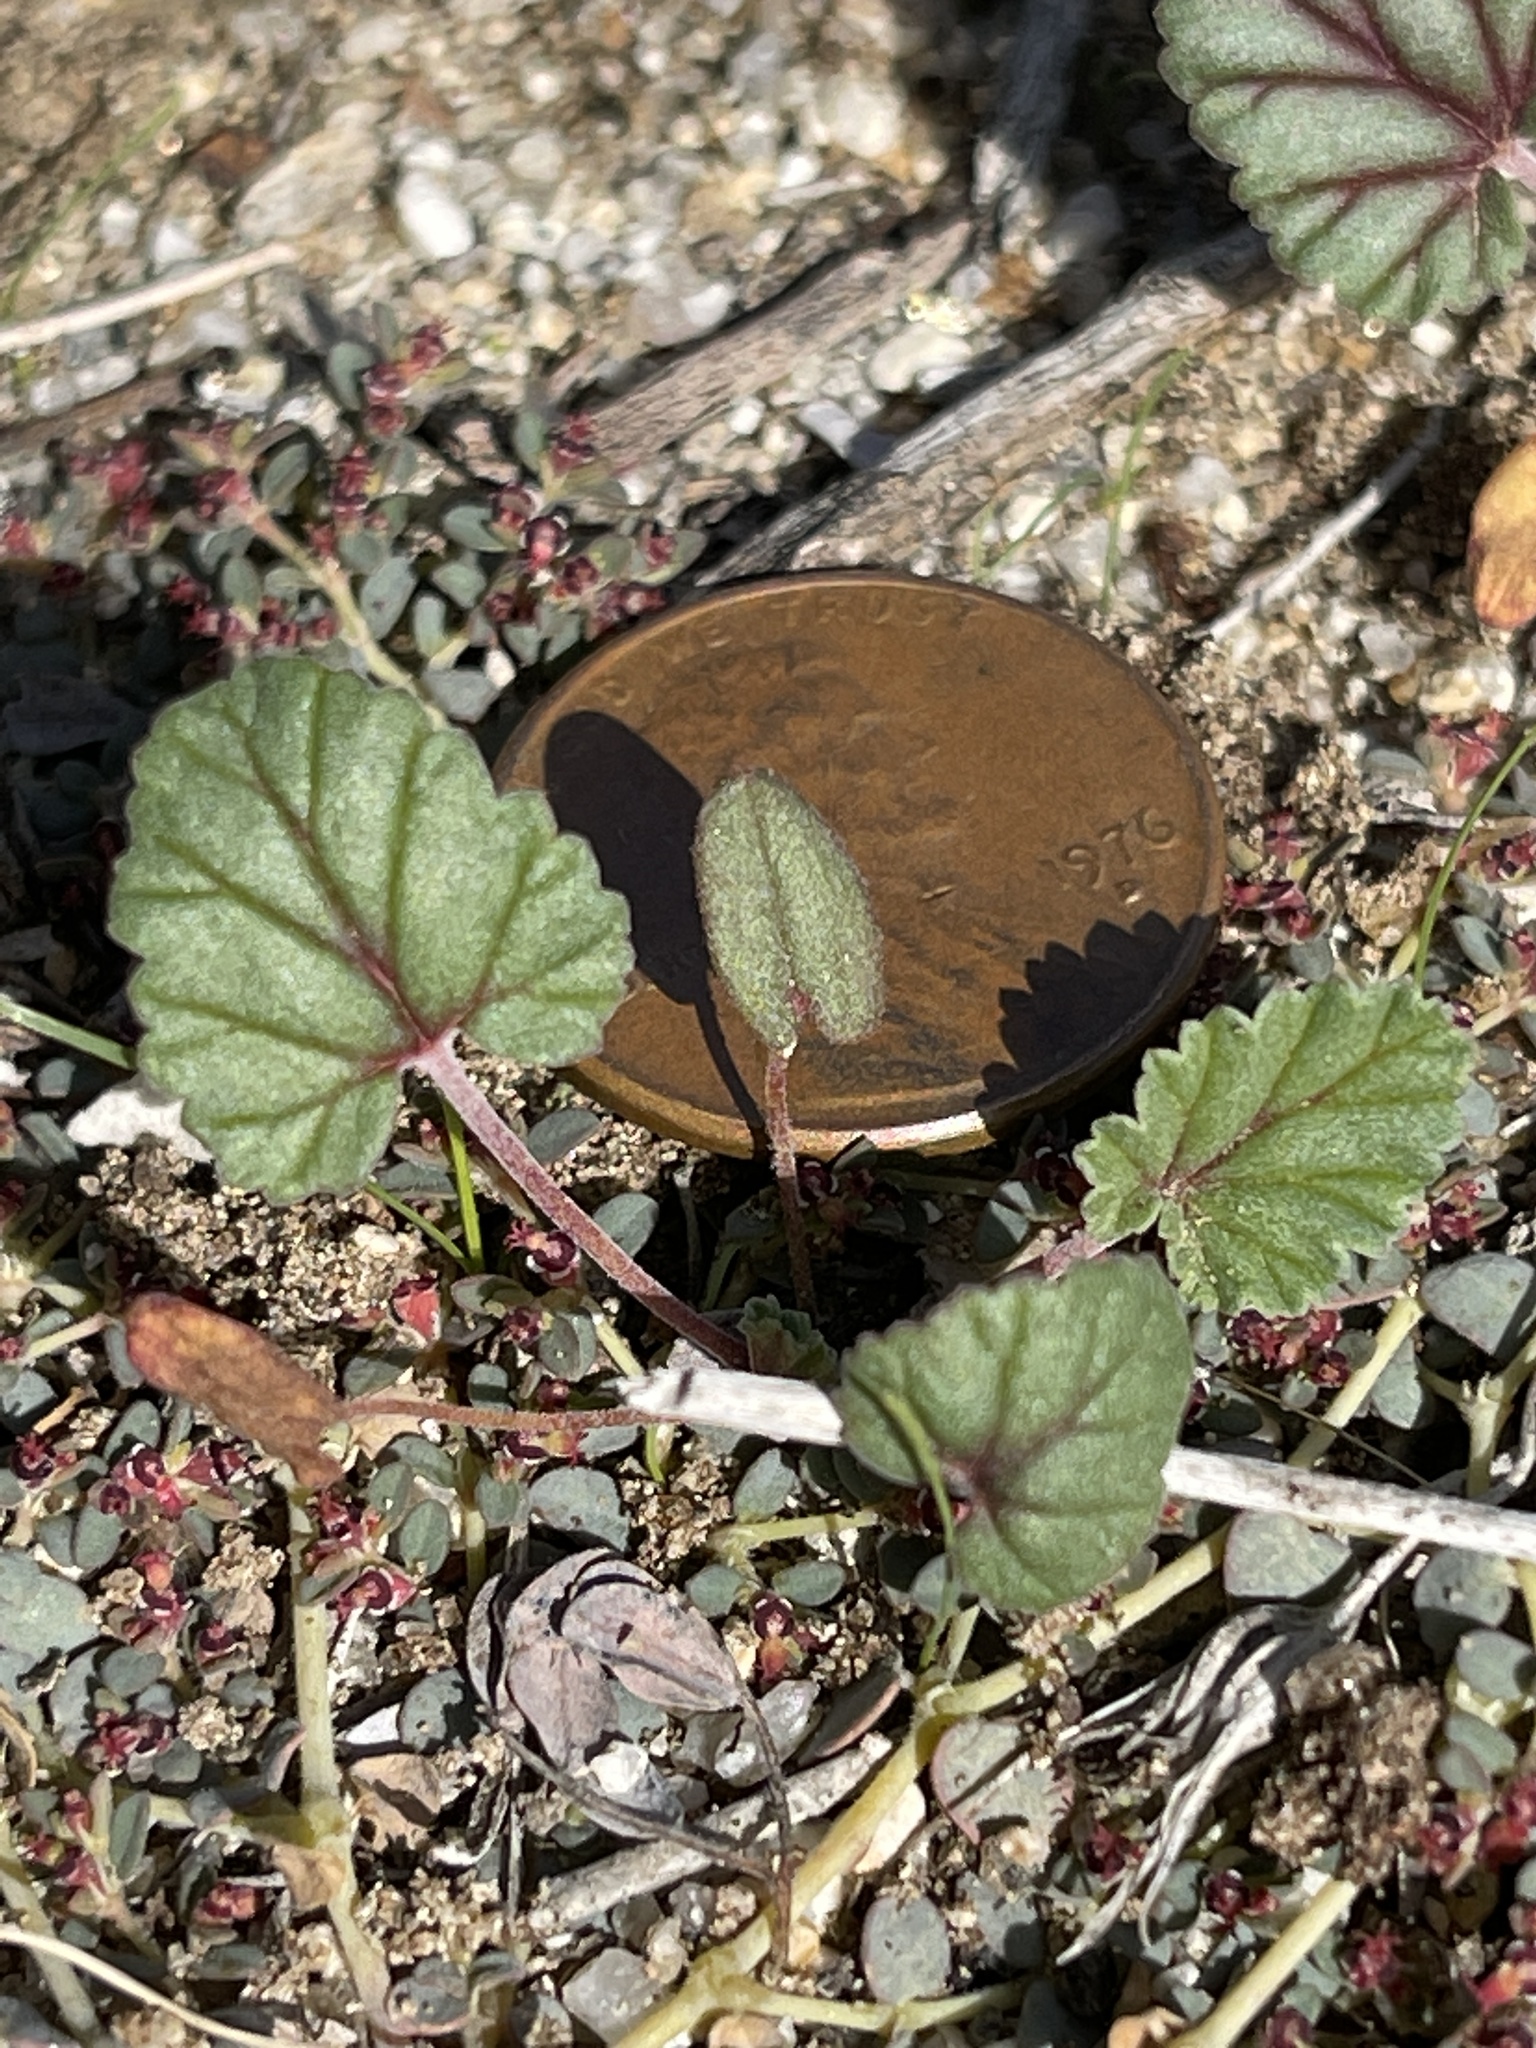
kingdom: Plantae
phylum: Tracheophyta
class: Magnoliopsida
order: Geraniales
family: Geraniaceae
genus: Erodium
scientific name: Erodium texanum
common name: Texas stork's-bill
